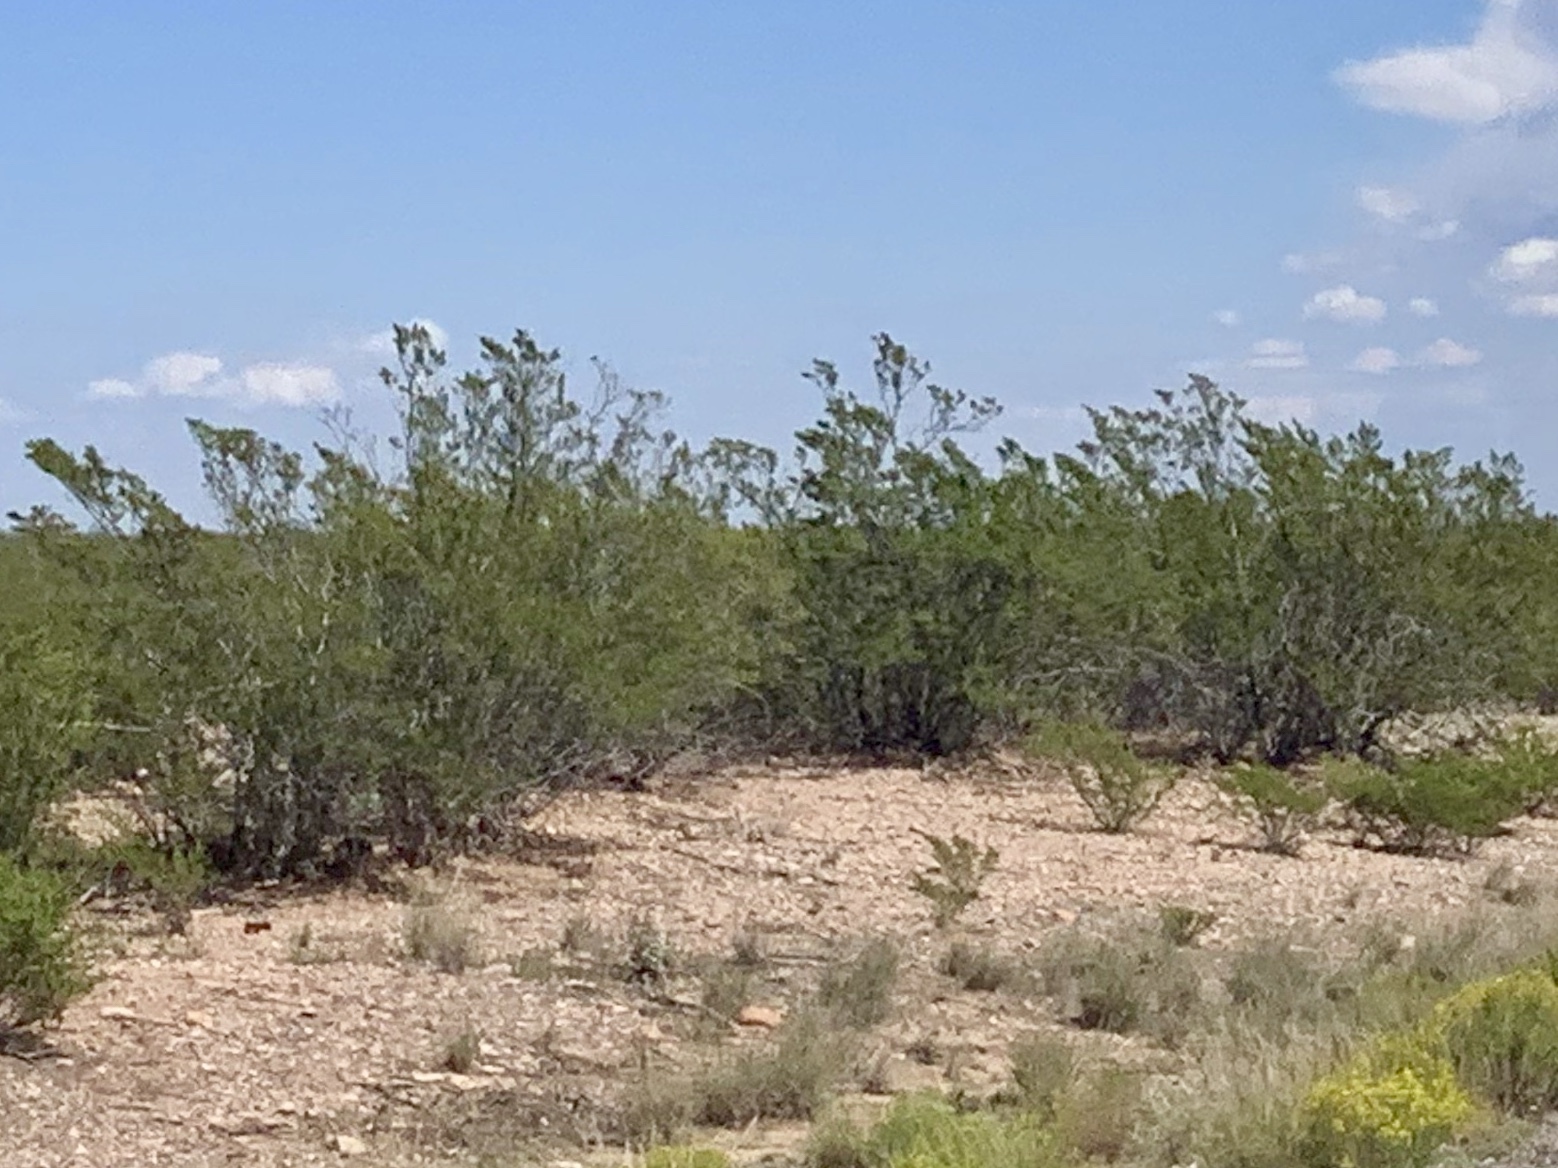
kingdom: Plantae
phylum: Tracheophyta
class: Magnoliopsida
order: Zygophyllales
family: Zygophyllaceae
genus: Larrea
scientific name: Larrea tridentata
